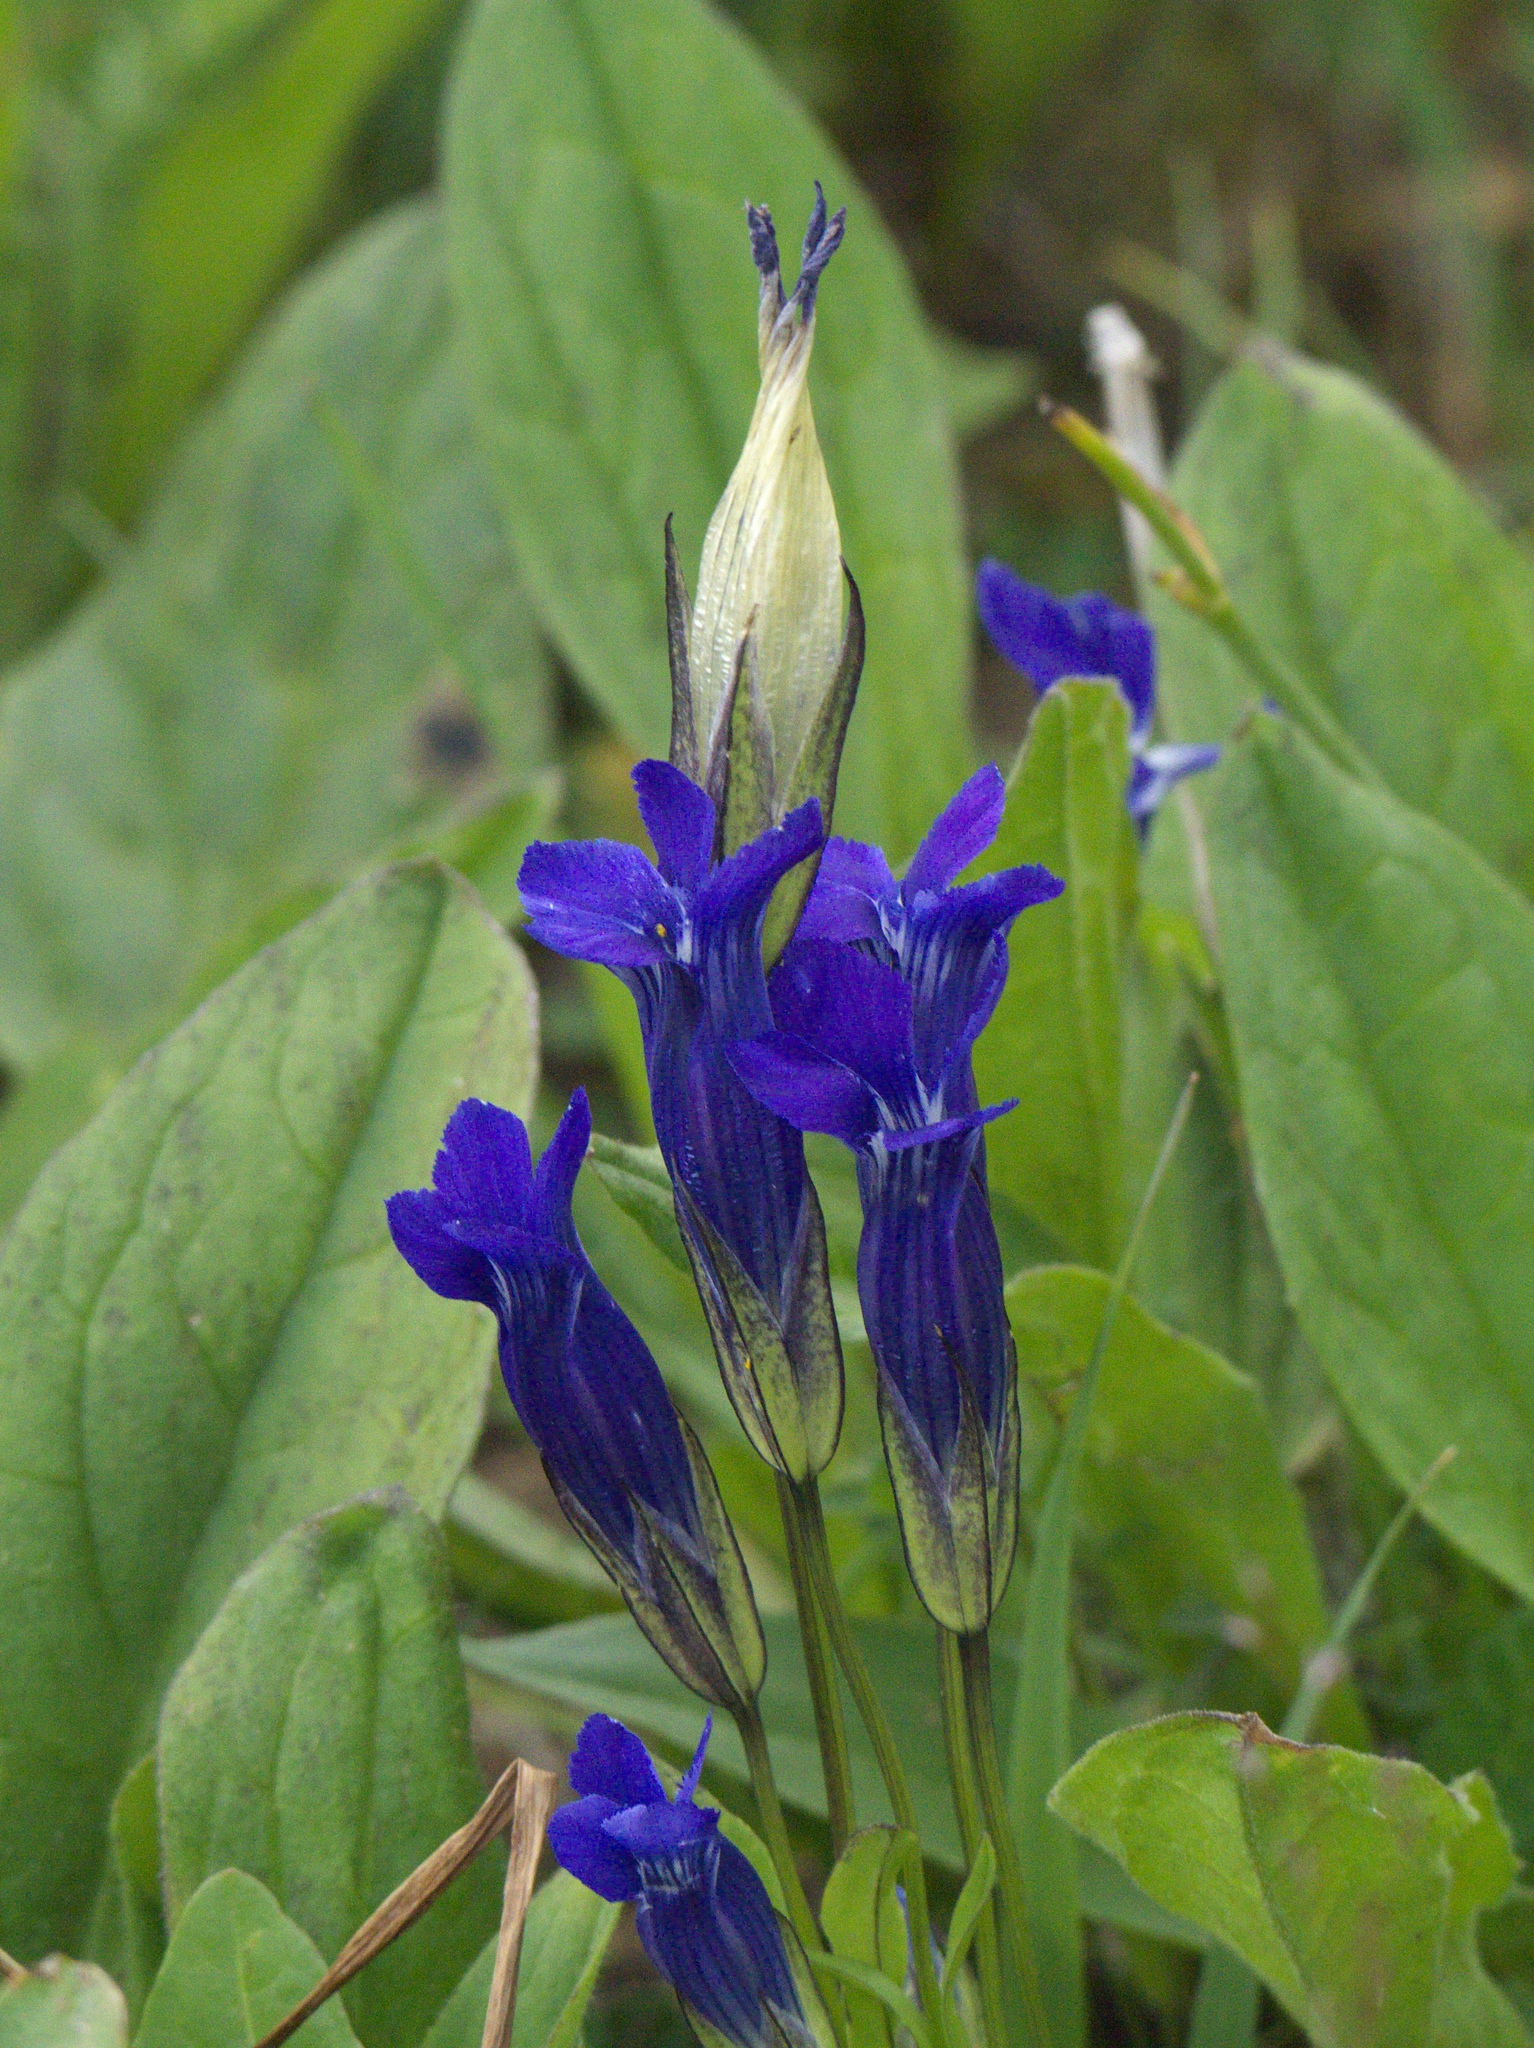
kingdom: Plantae
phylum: Tracheophyta
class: Magnoliopsida
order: Gentianales
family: Gentianaceae
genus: Gentianopsis
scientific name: Gentianopsis thermalis
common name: Rocky mountain fringed-gentian
